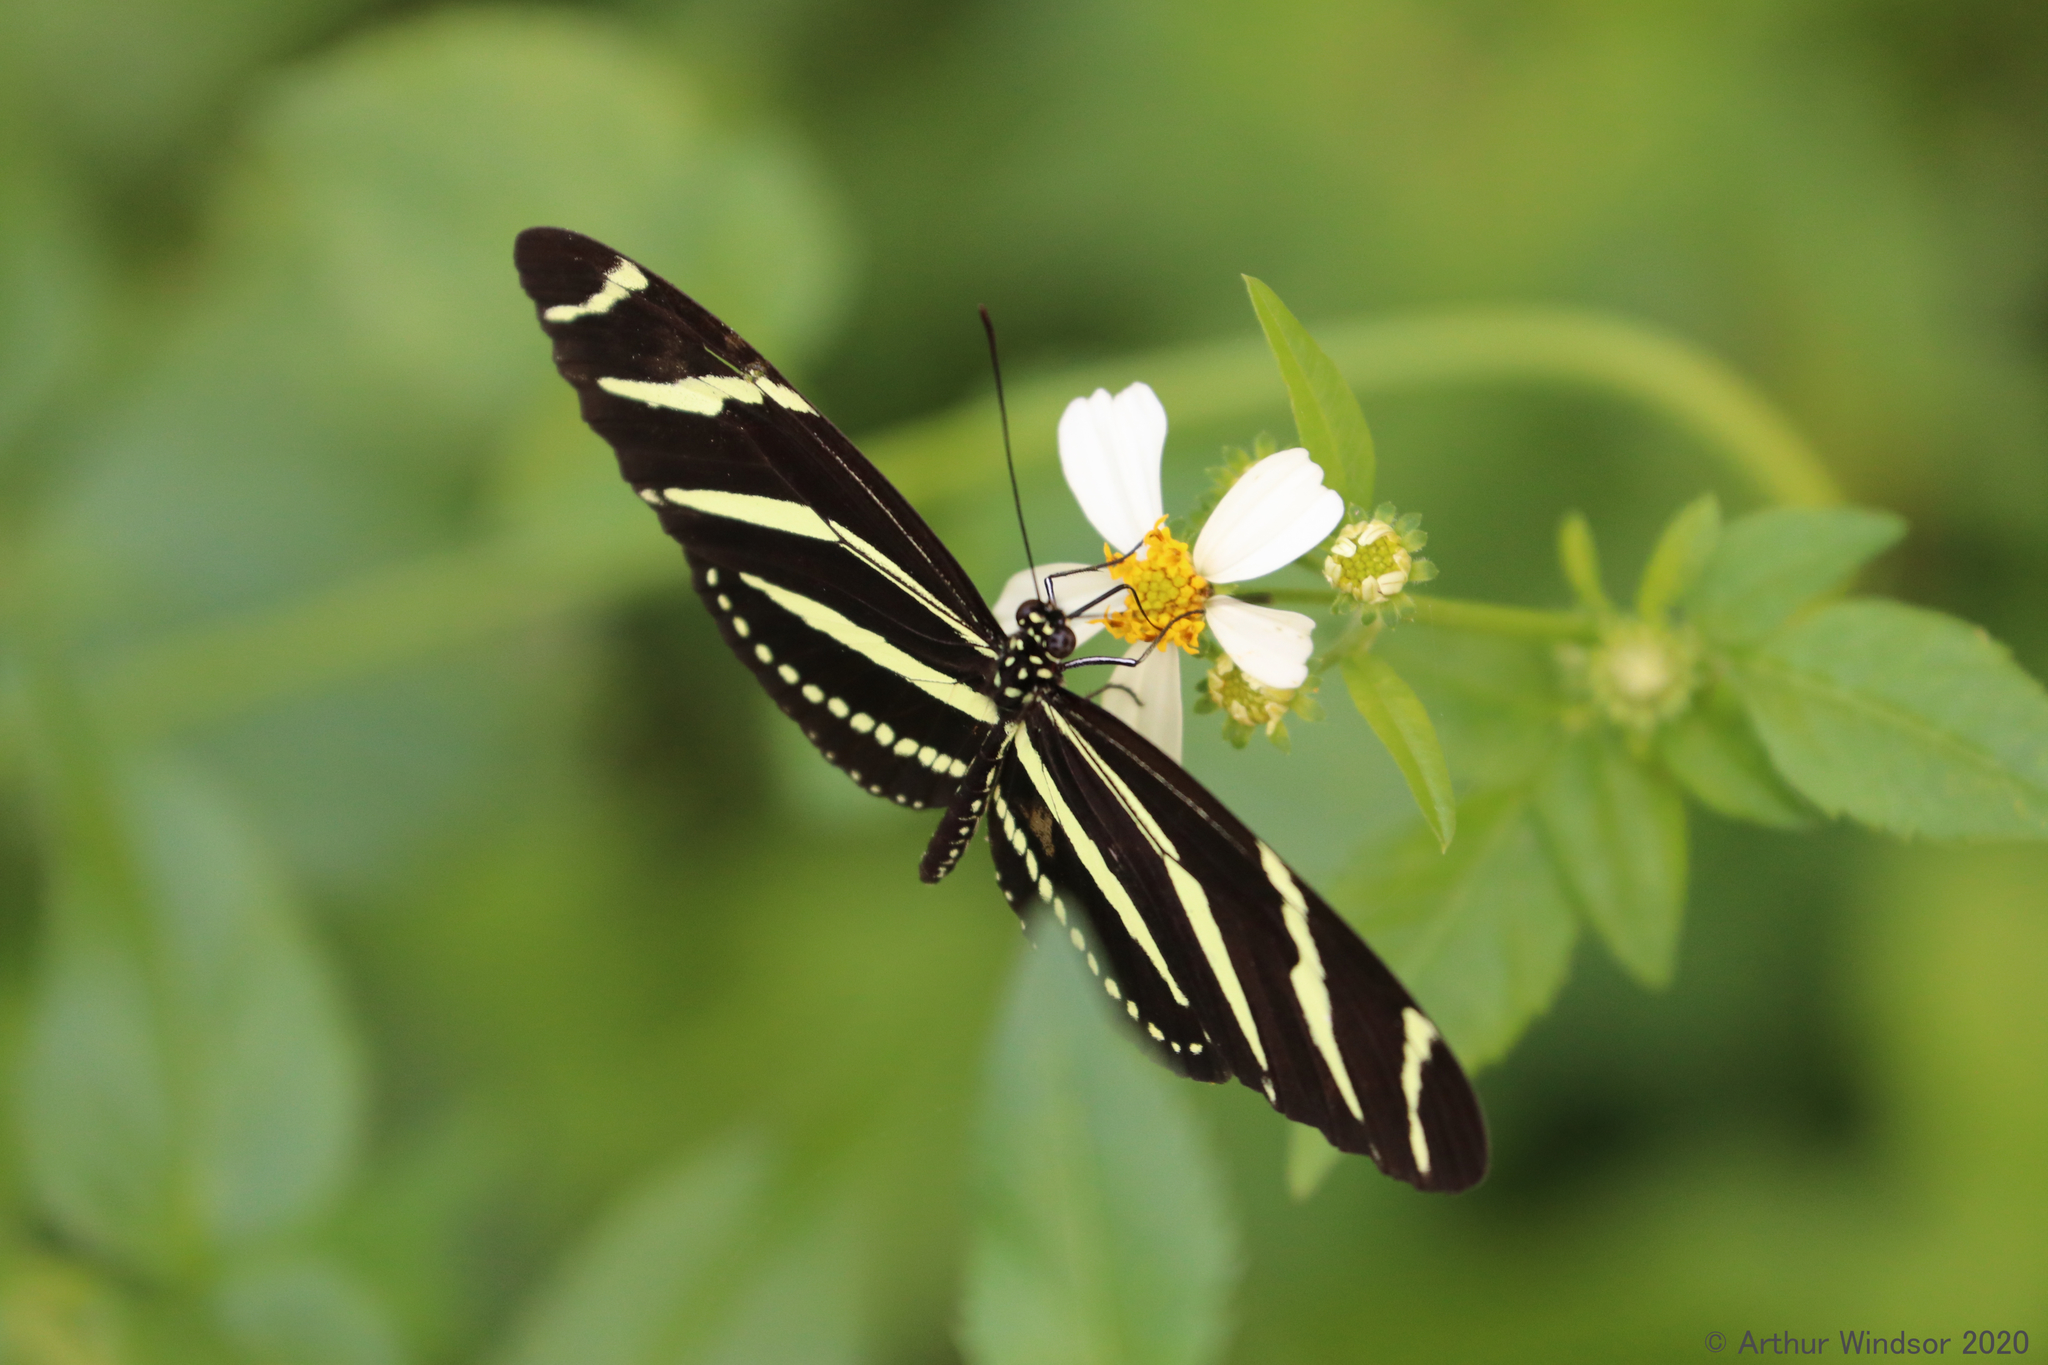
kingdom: Animalia
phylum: Arthropoda
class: Insecta
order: Lepidoptera
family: Nymphalidae
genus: Heliconius
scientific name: Heliconius charithonia
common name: Zebra long wing
